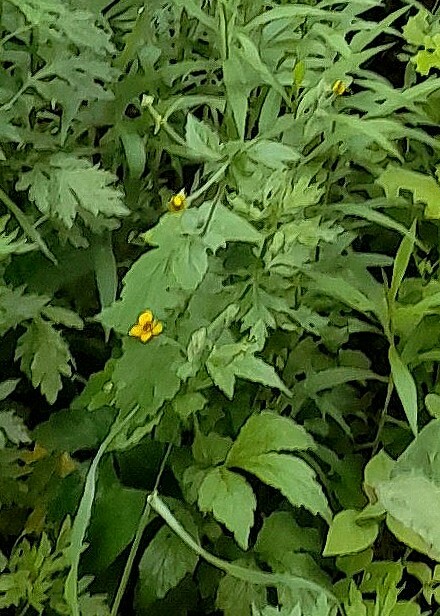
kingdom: Plantae
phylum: Tracheophyta
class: Magnoliopsida
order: Rosales
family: Rosaceae
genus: Geum
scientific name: Geum urbanum
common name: Wood avens
